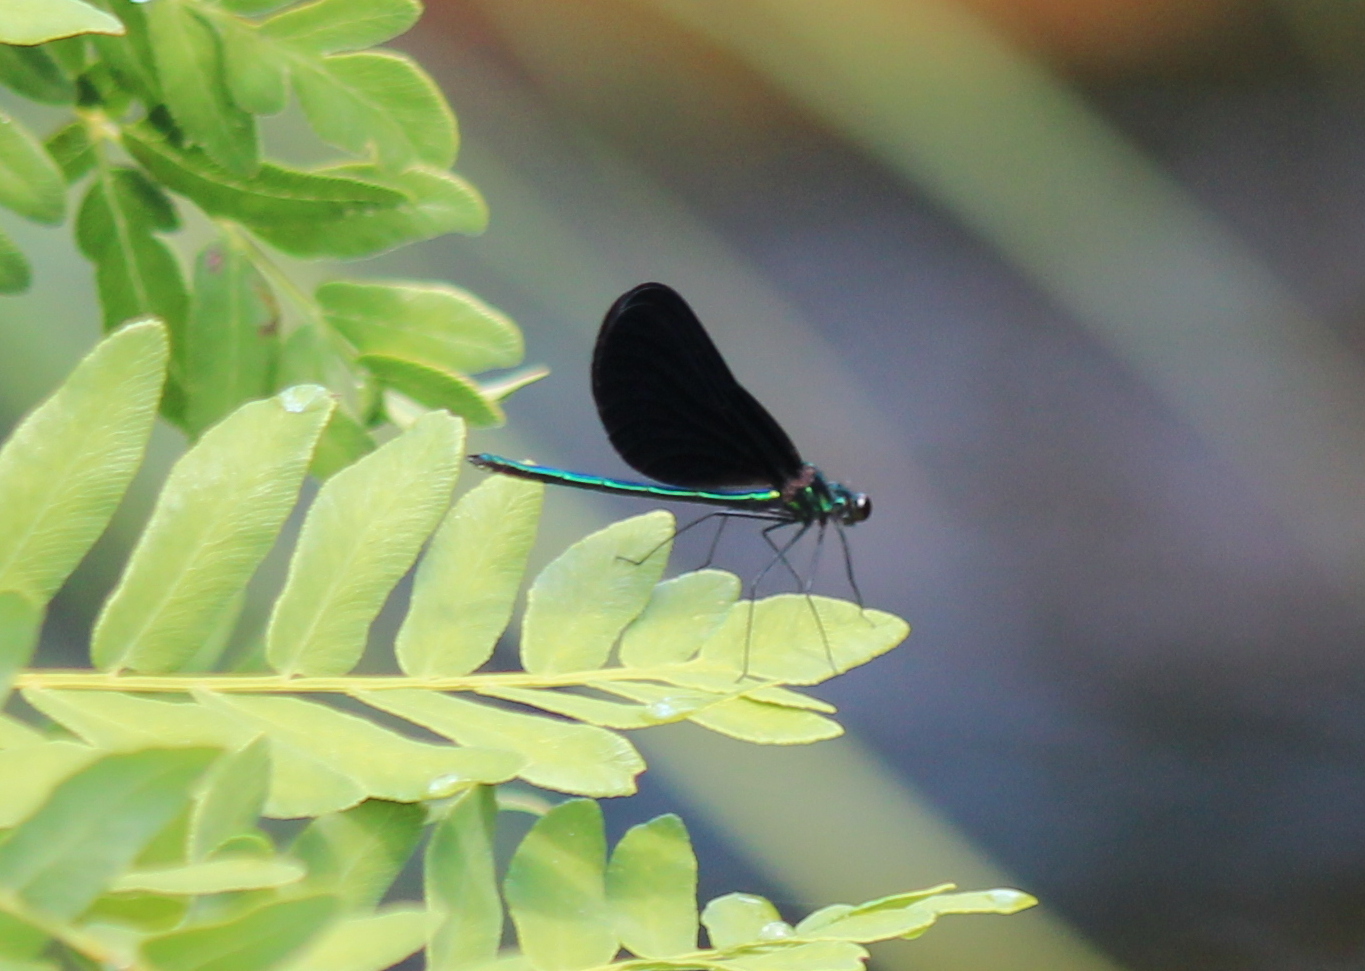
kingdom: Animalia
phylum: Arthropoda
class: Insecta
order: Odonata
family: Calopterygidae
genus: Calopteryx
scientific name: Calopteryx maculata
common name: Ebony jewelwing
